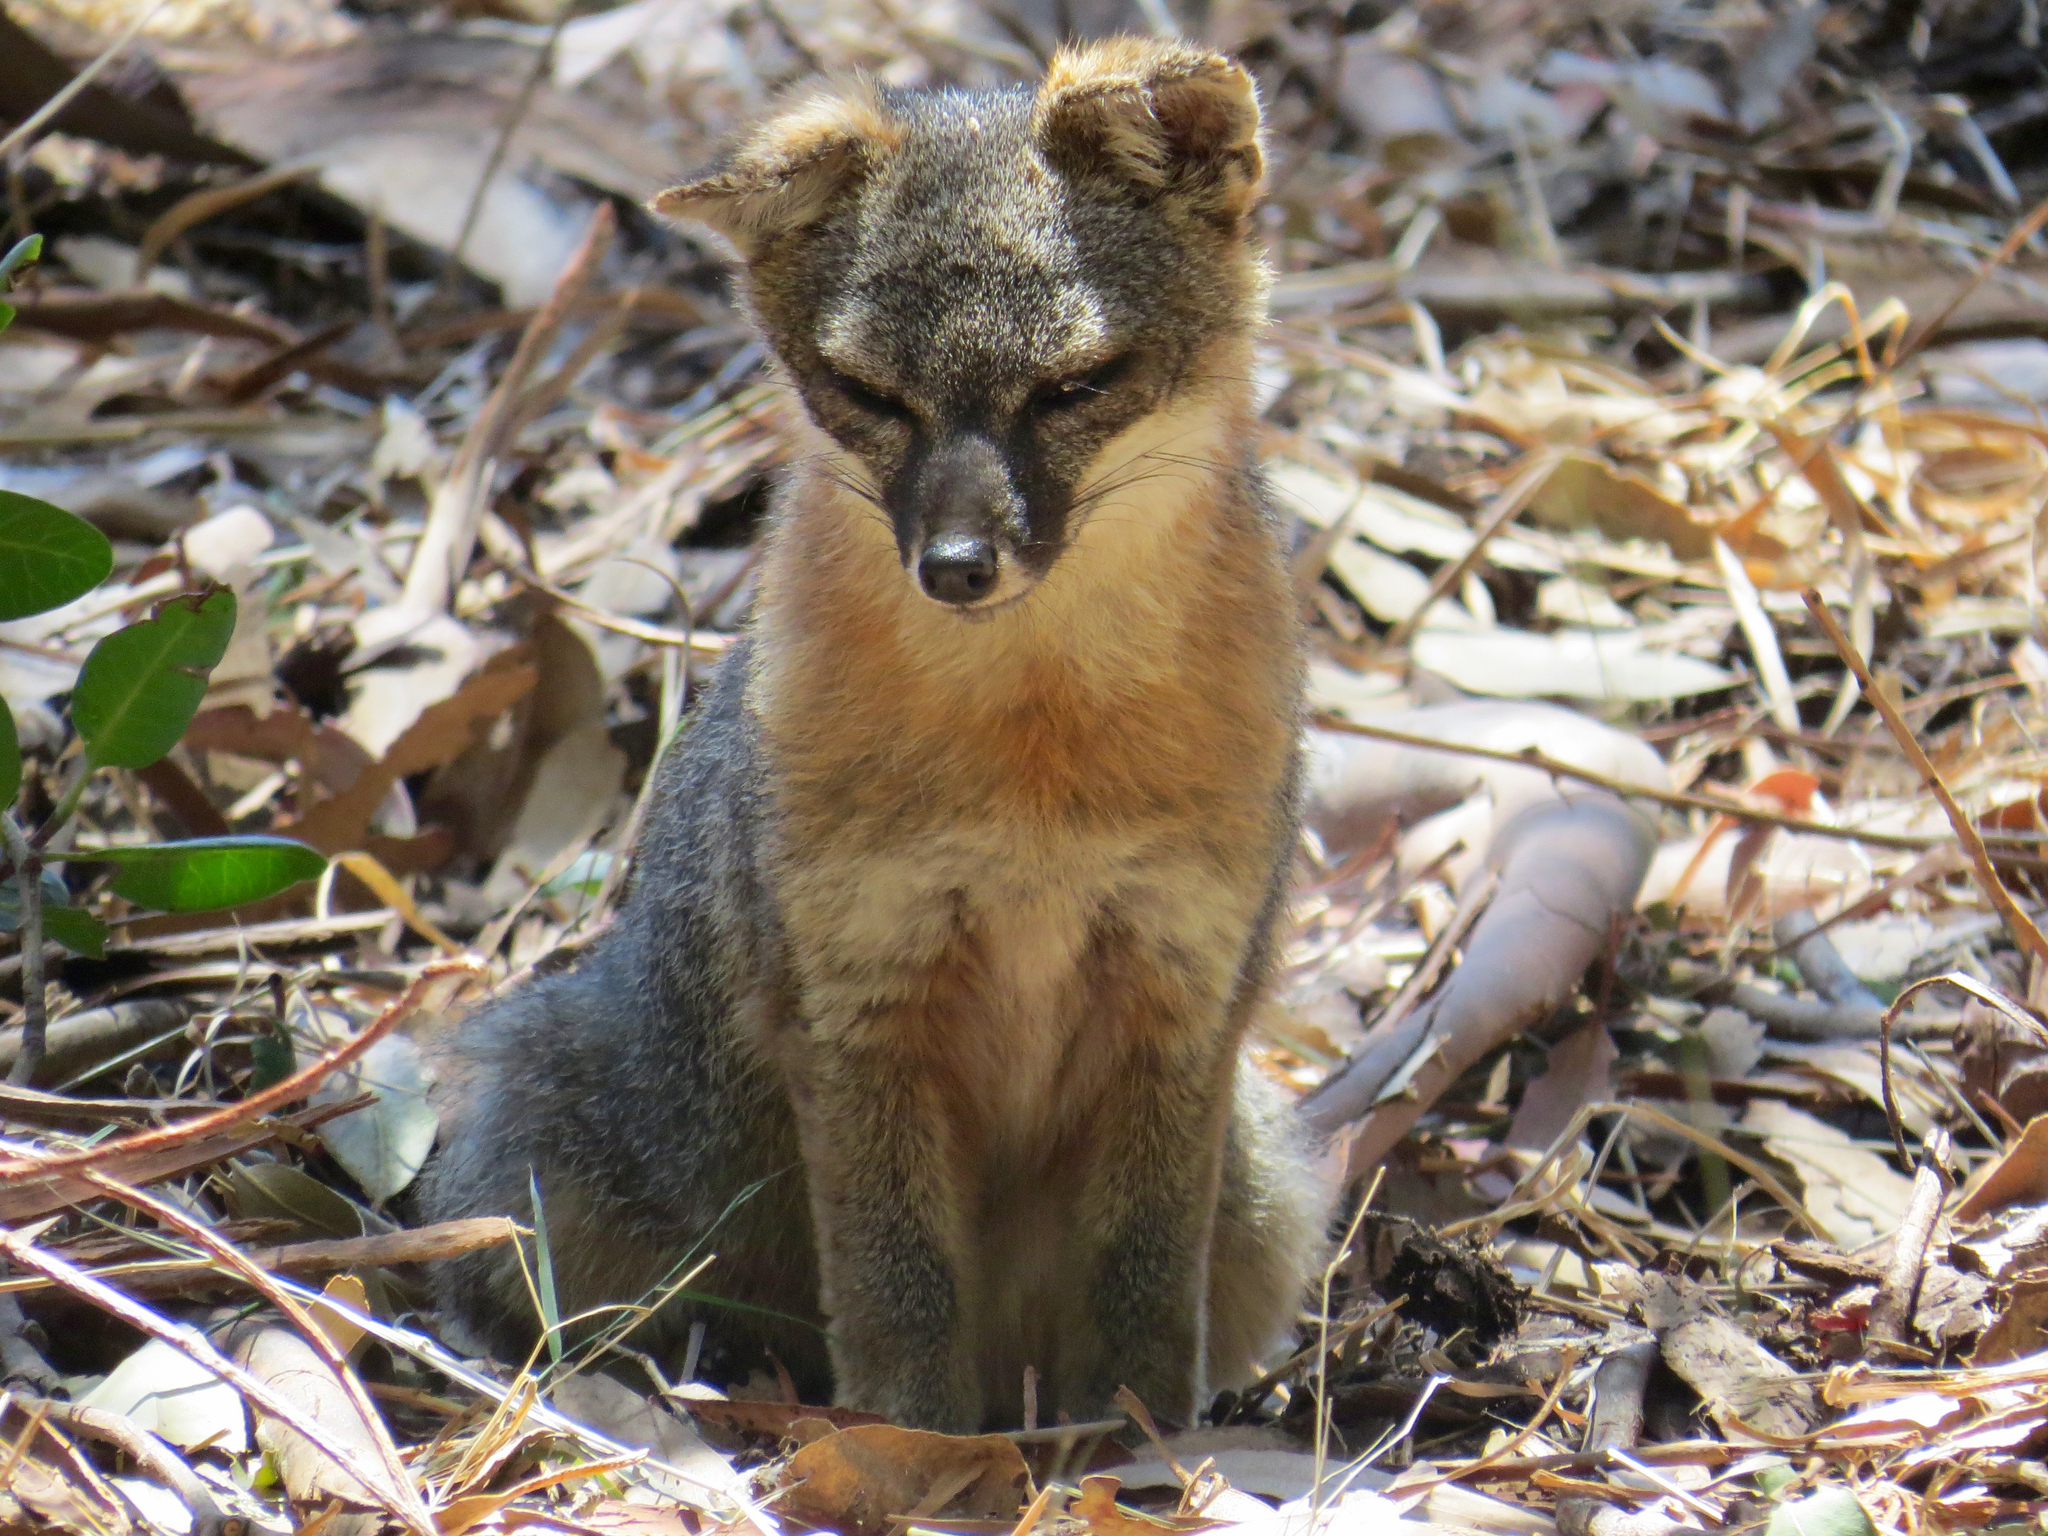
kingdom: Animalia
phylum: Chordata
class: Mammalia
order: Carnivora
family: Canidae
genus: Urocyon
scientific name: Urocyon littoralis
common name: Island gray fox
